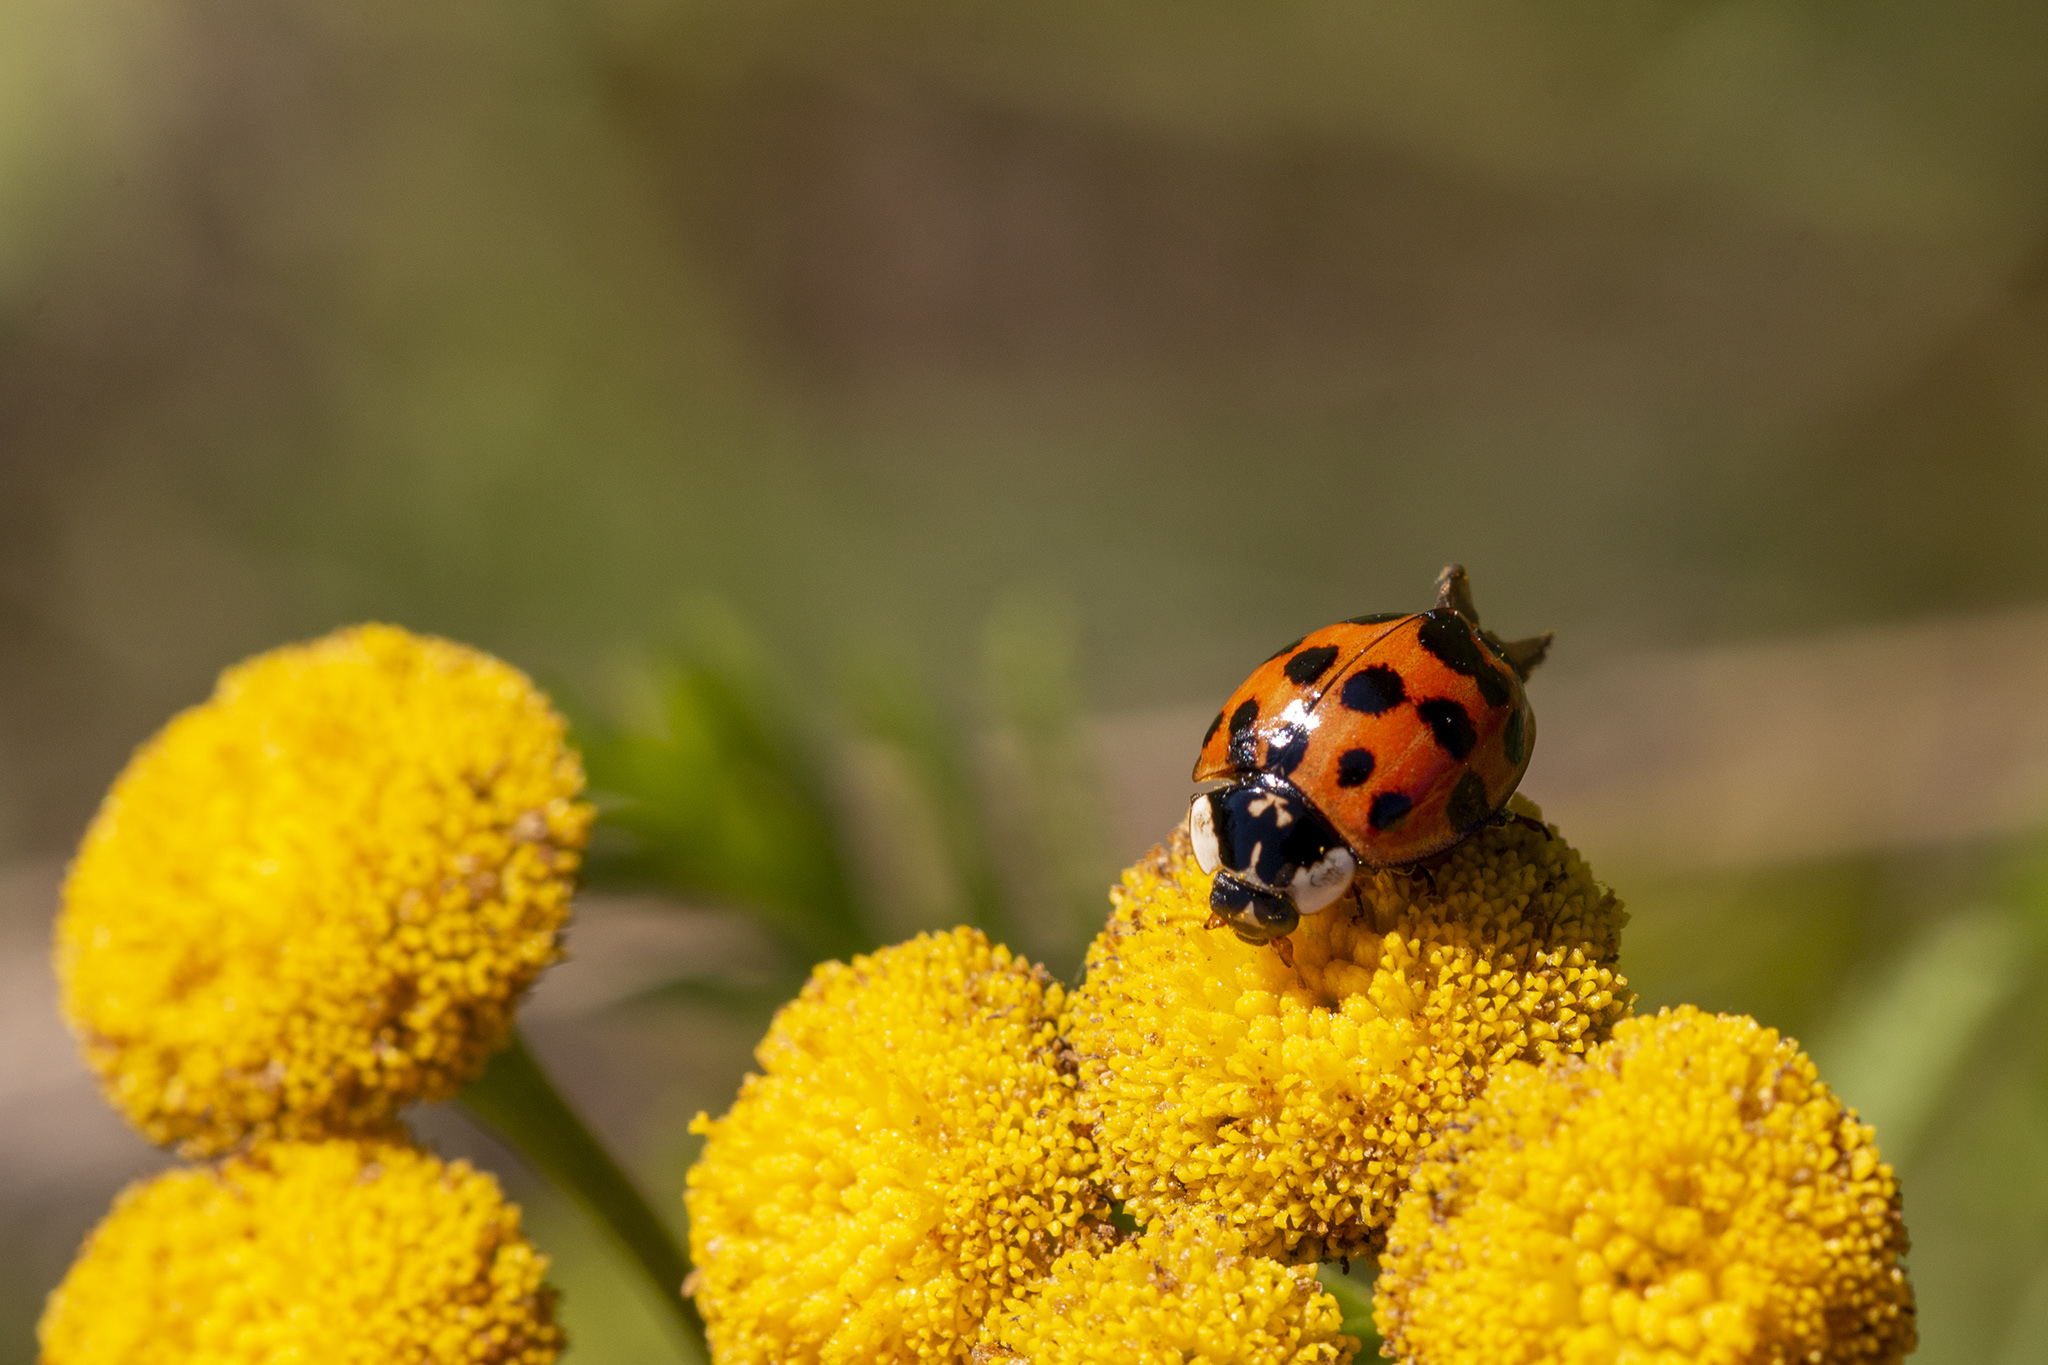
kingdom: Animalia
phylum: Arthropoda
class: Insecta
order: Coleoptera
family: Coccinellidae
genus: Harmonia
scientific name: Harmonia axyridis
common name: Harlequin ladybird
